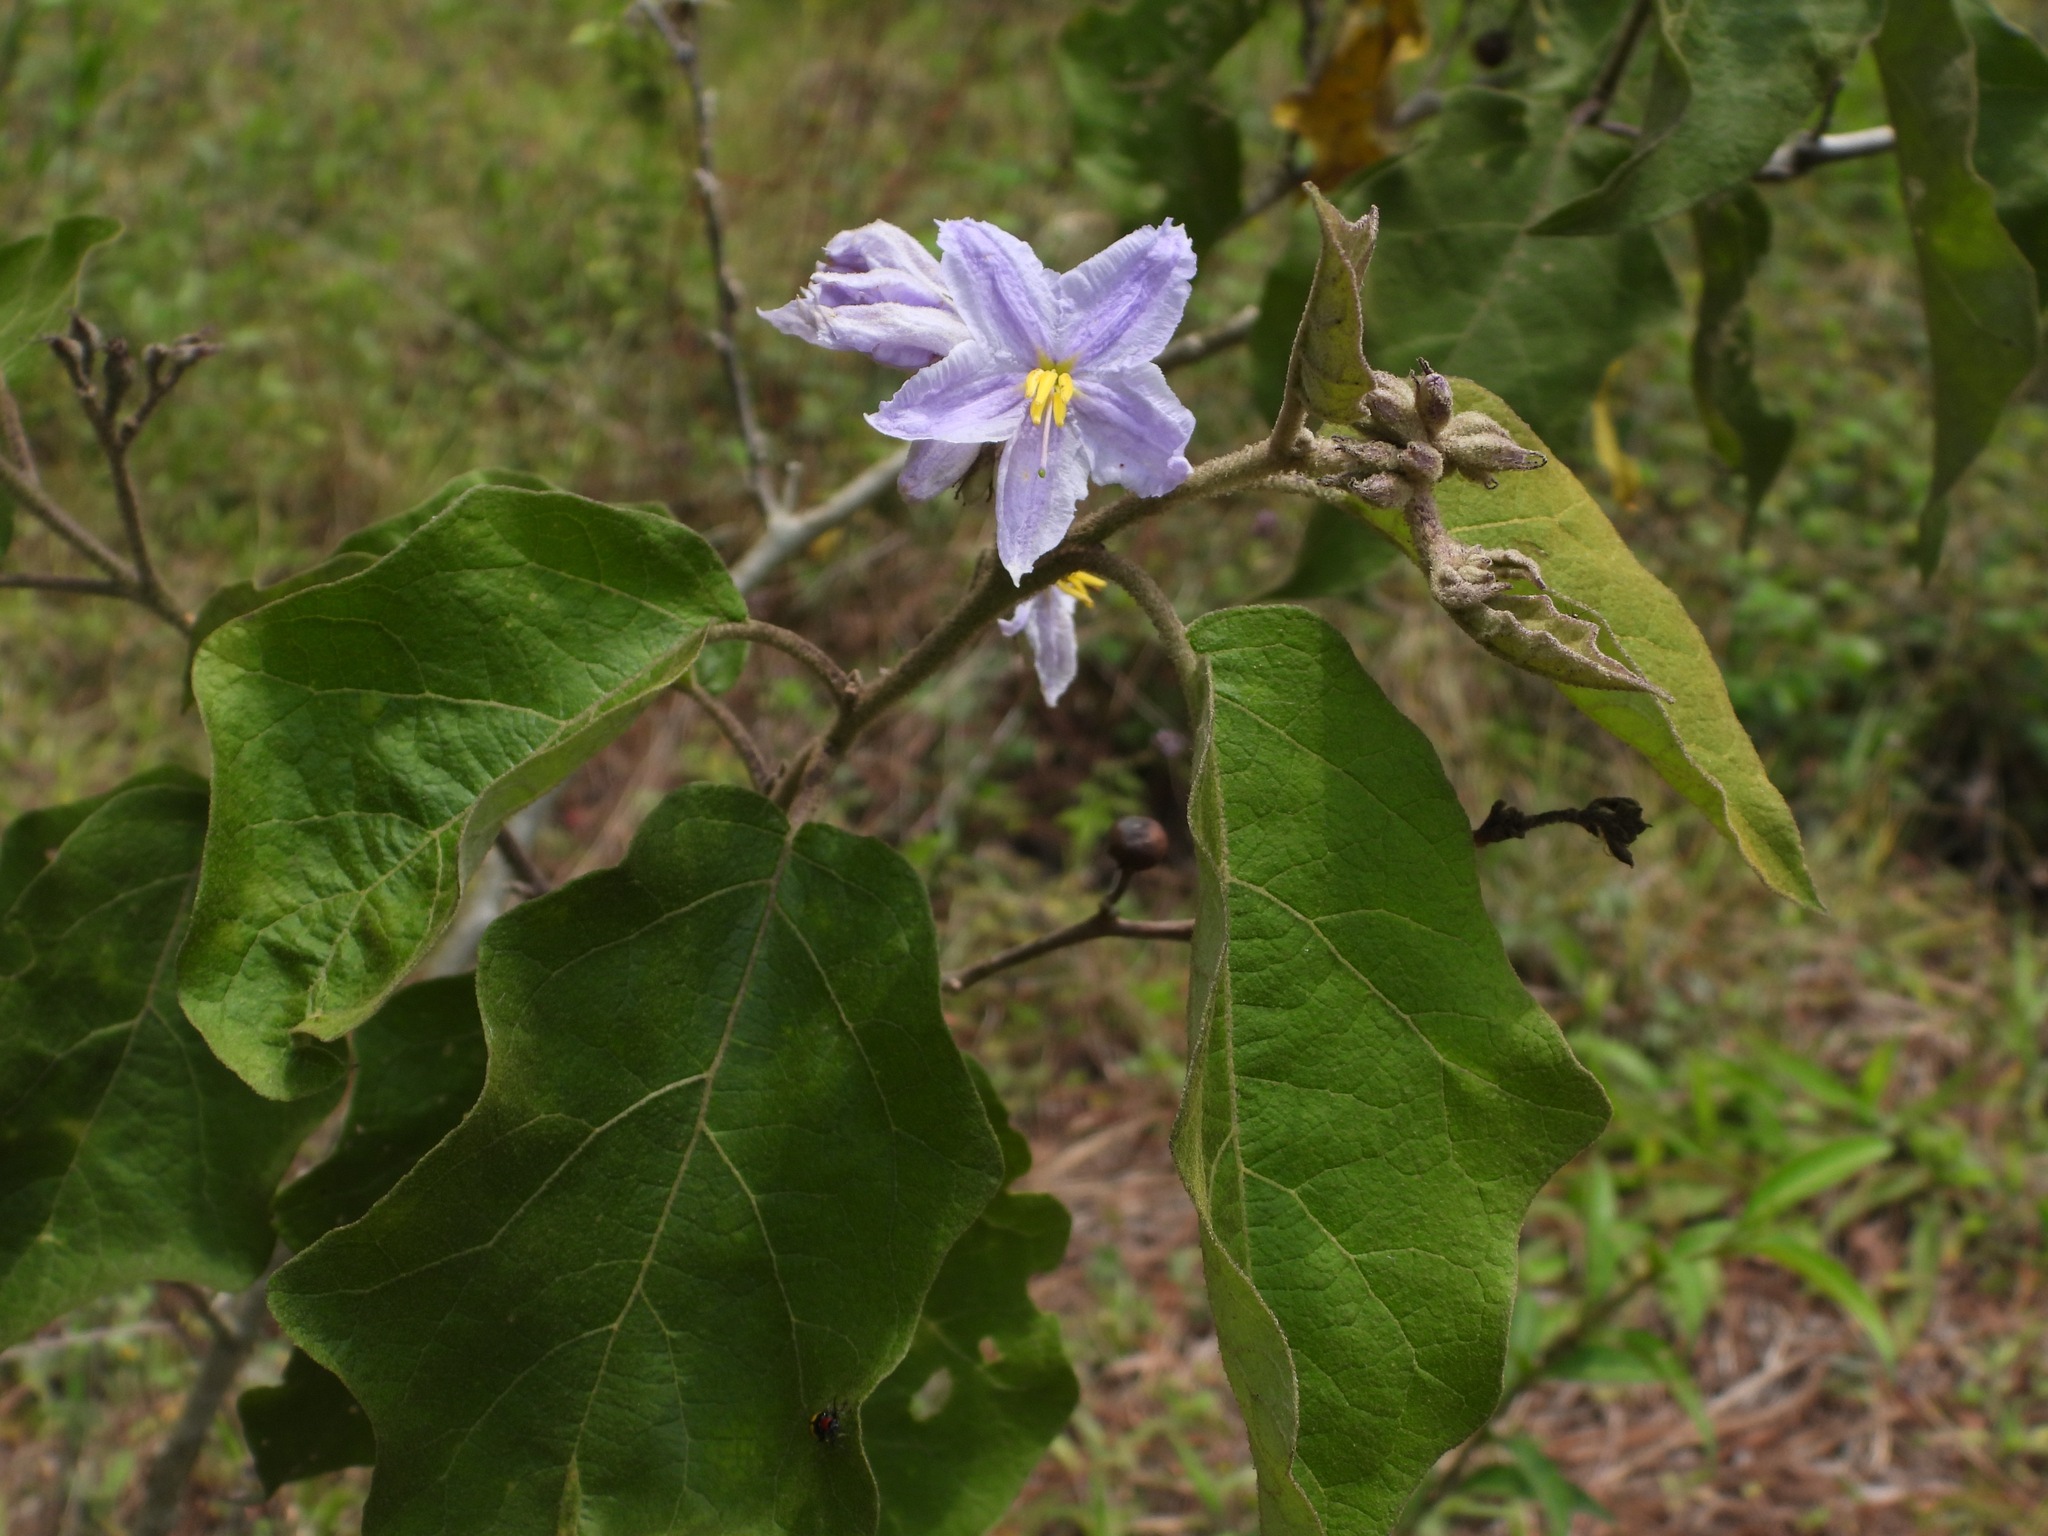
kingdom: Plantae
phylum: Tracheophyta
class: Magnoliopsida
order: Solanales
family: Solanaceae
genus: Solanum
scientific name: Solanum lanceolatum
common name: Orangeberry nightshade
